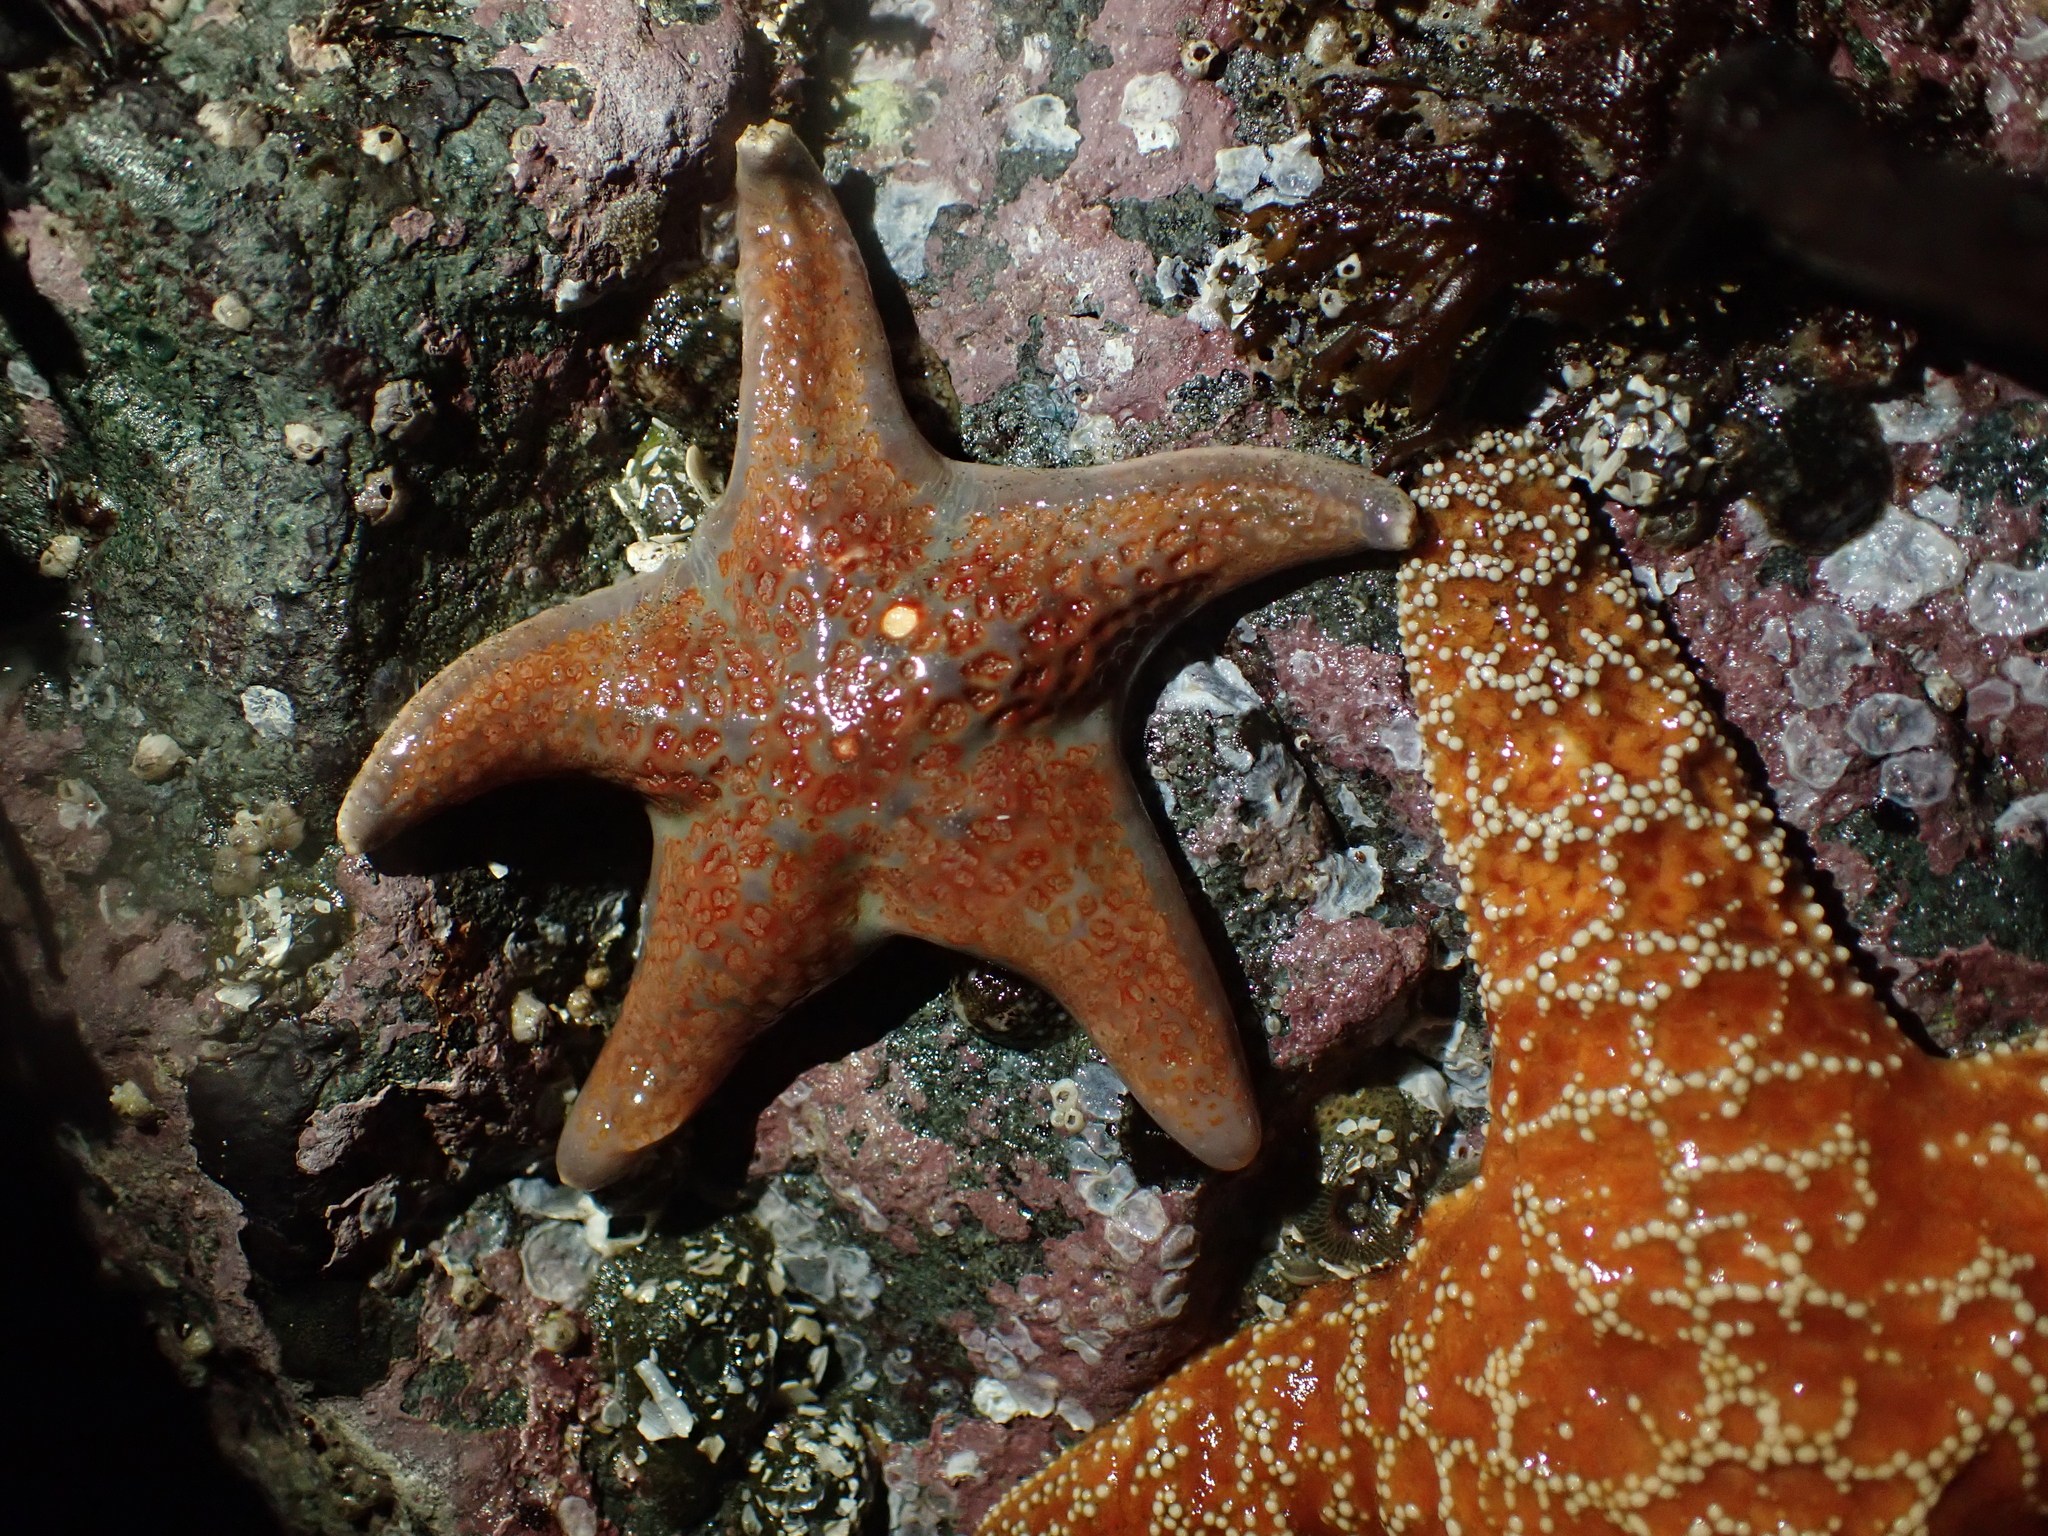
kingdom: Animalia
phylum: Echinodermata
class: Asteroidea
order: Valvatida
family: Asteropseidae
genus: Dermasterias
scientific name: Dermasterias imbricata
